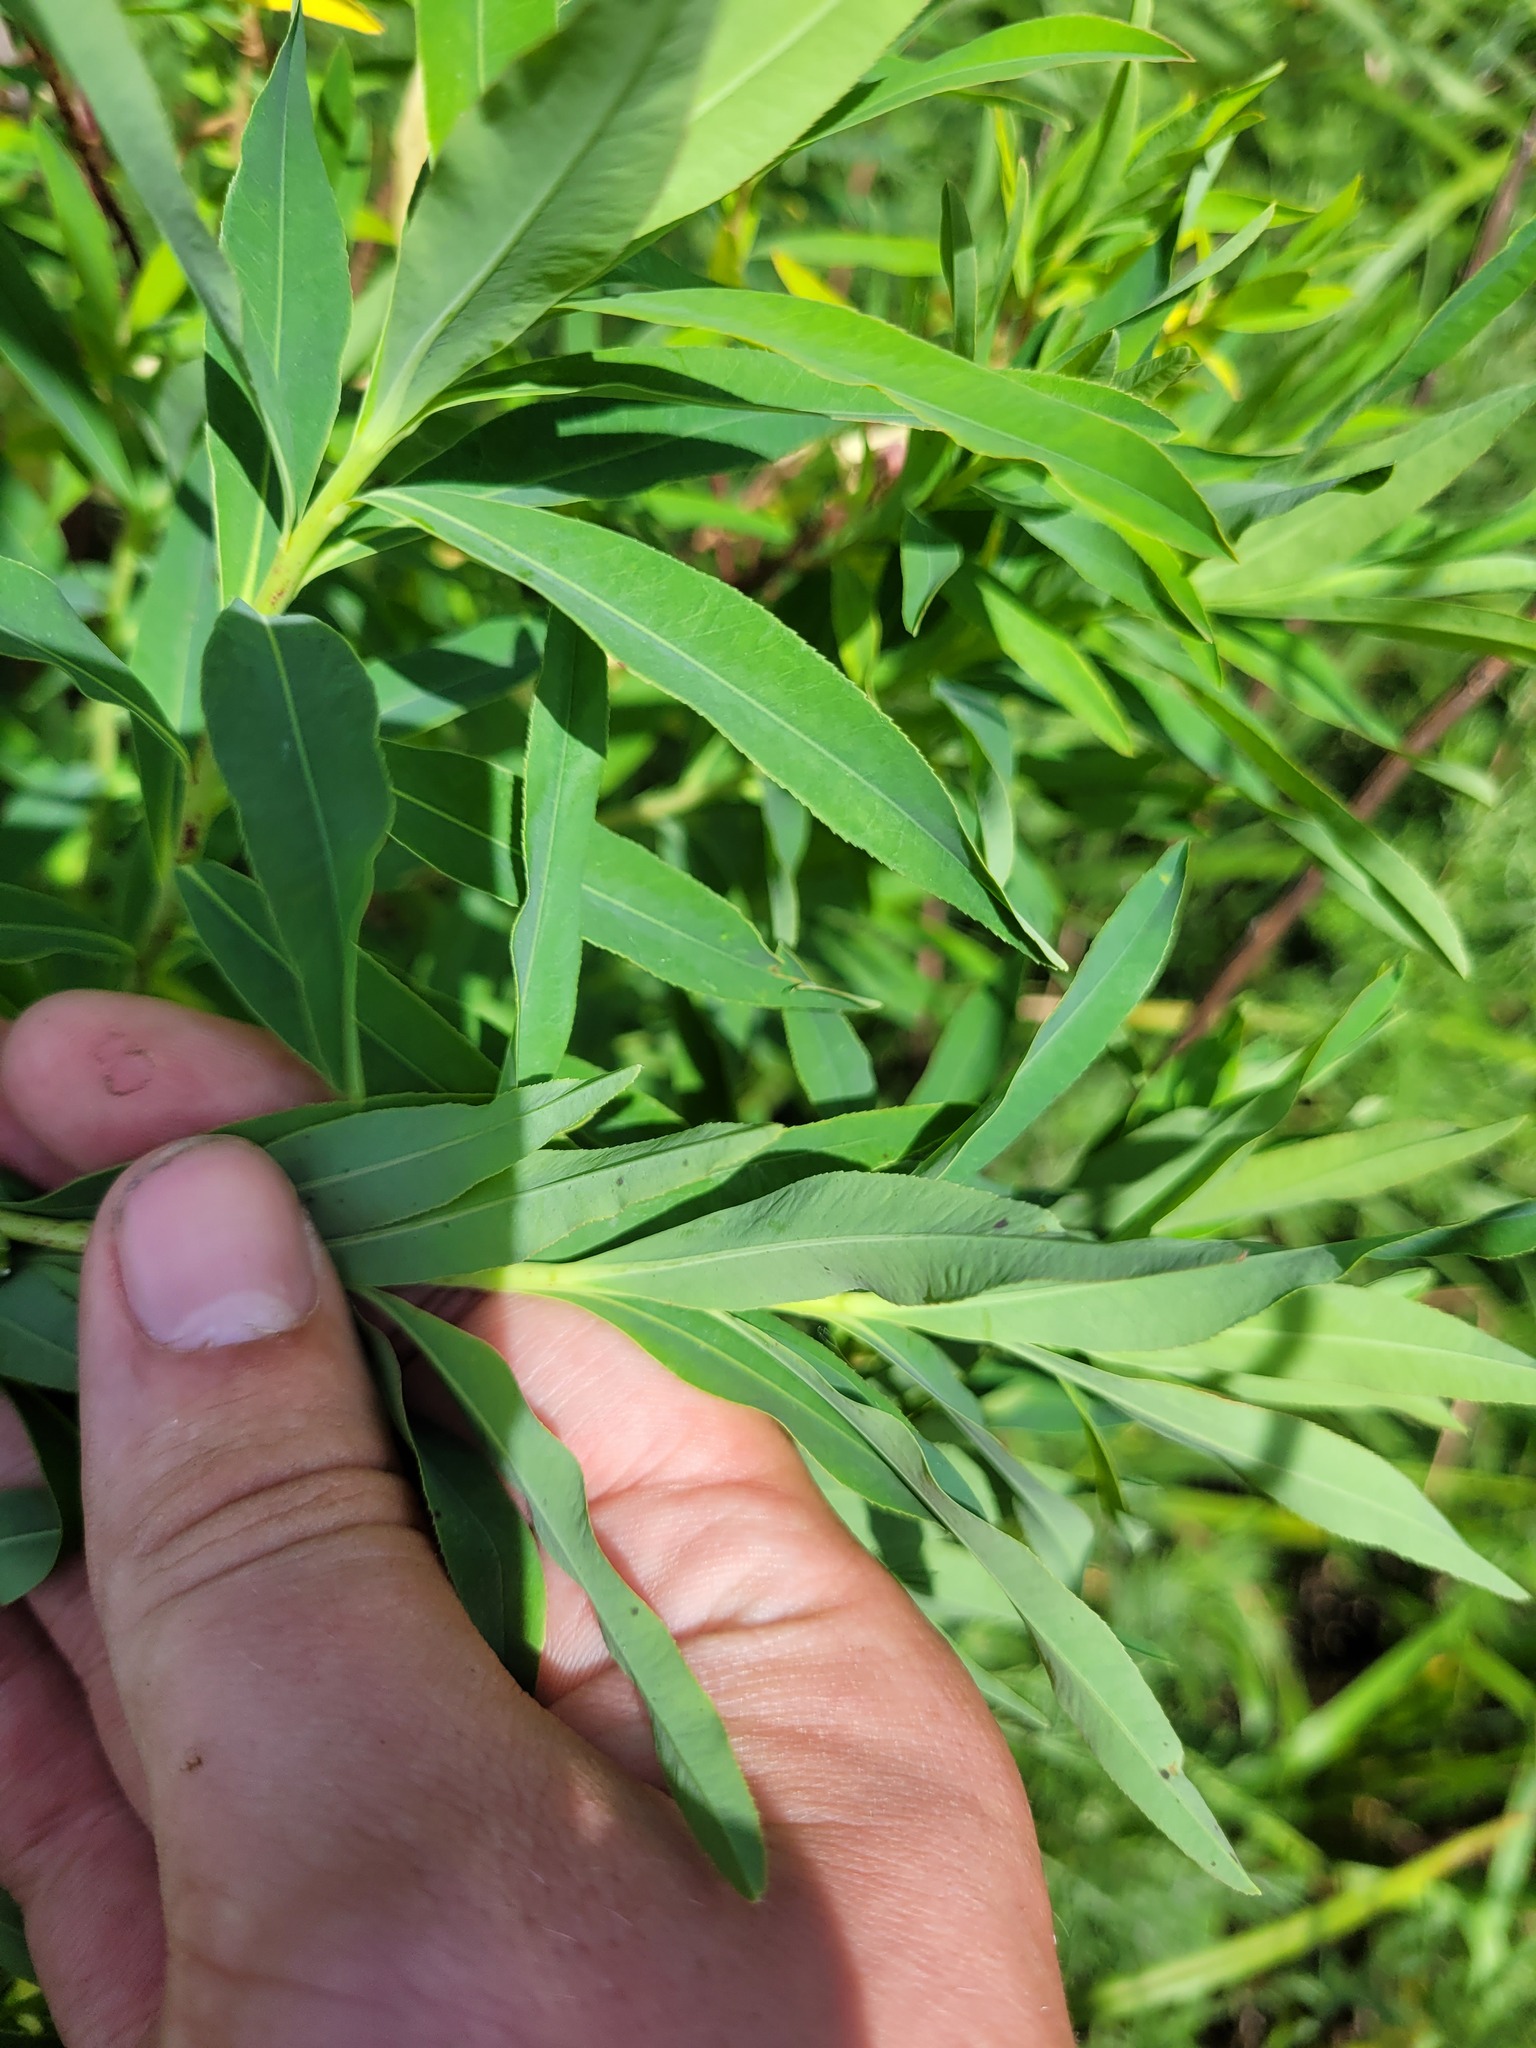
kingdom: Plantae
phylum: Tracheophyta
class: Magnoliopsida
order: Malpighiales
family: Euphorbiaceae
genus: Euphorbia
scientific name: Euphorbia palustris
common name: Marsh spurge
